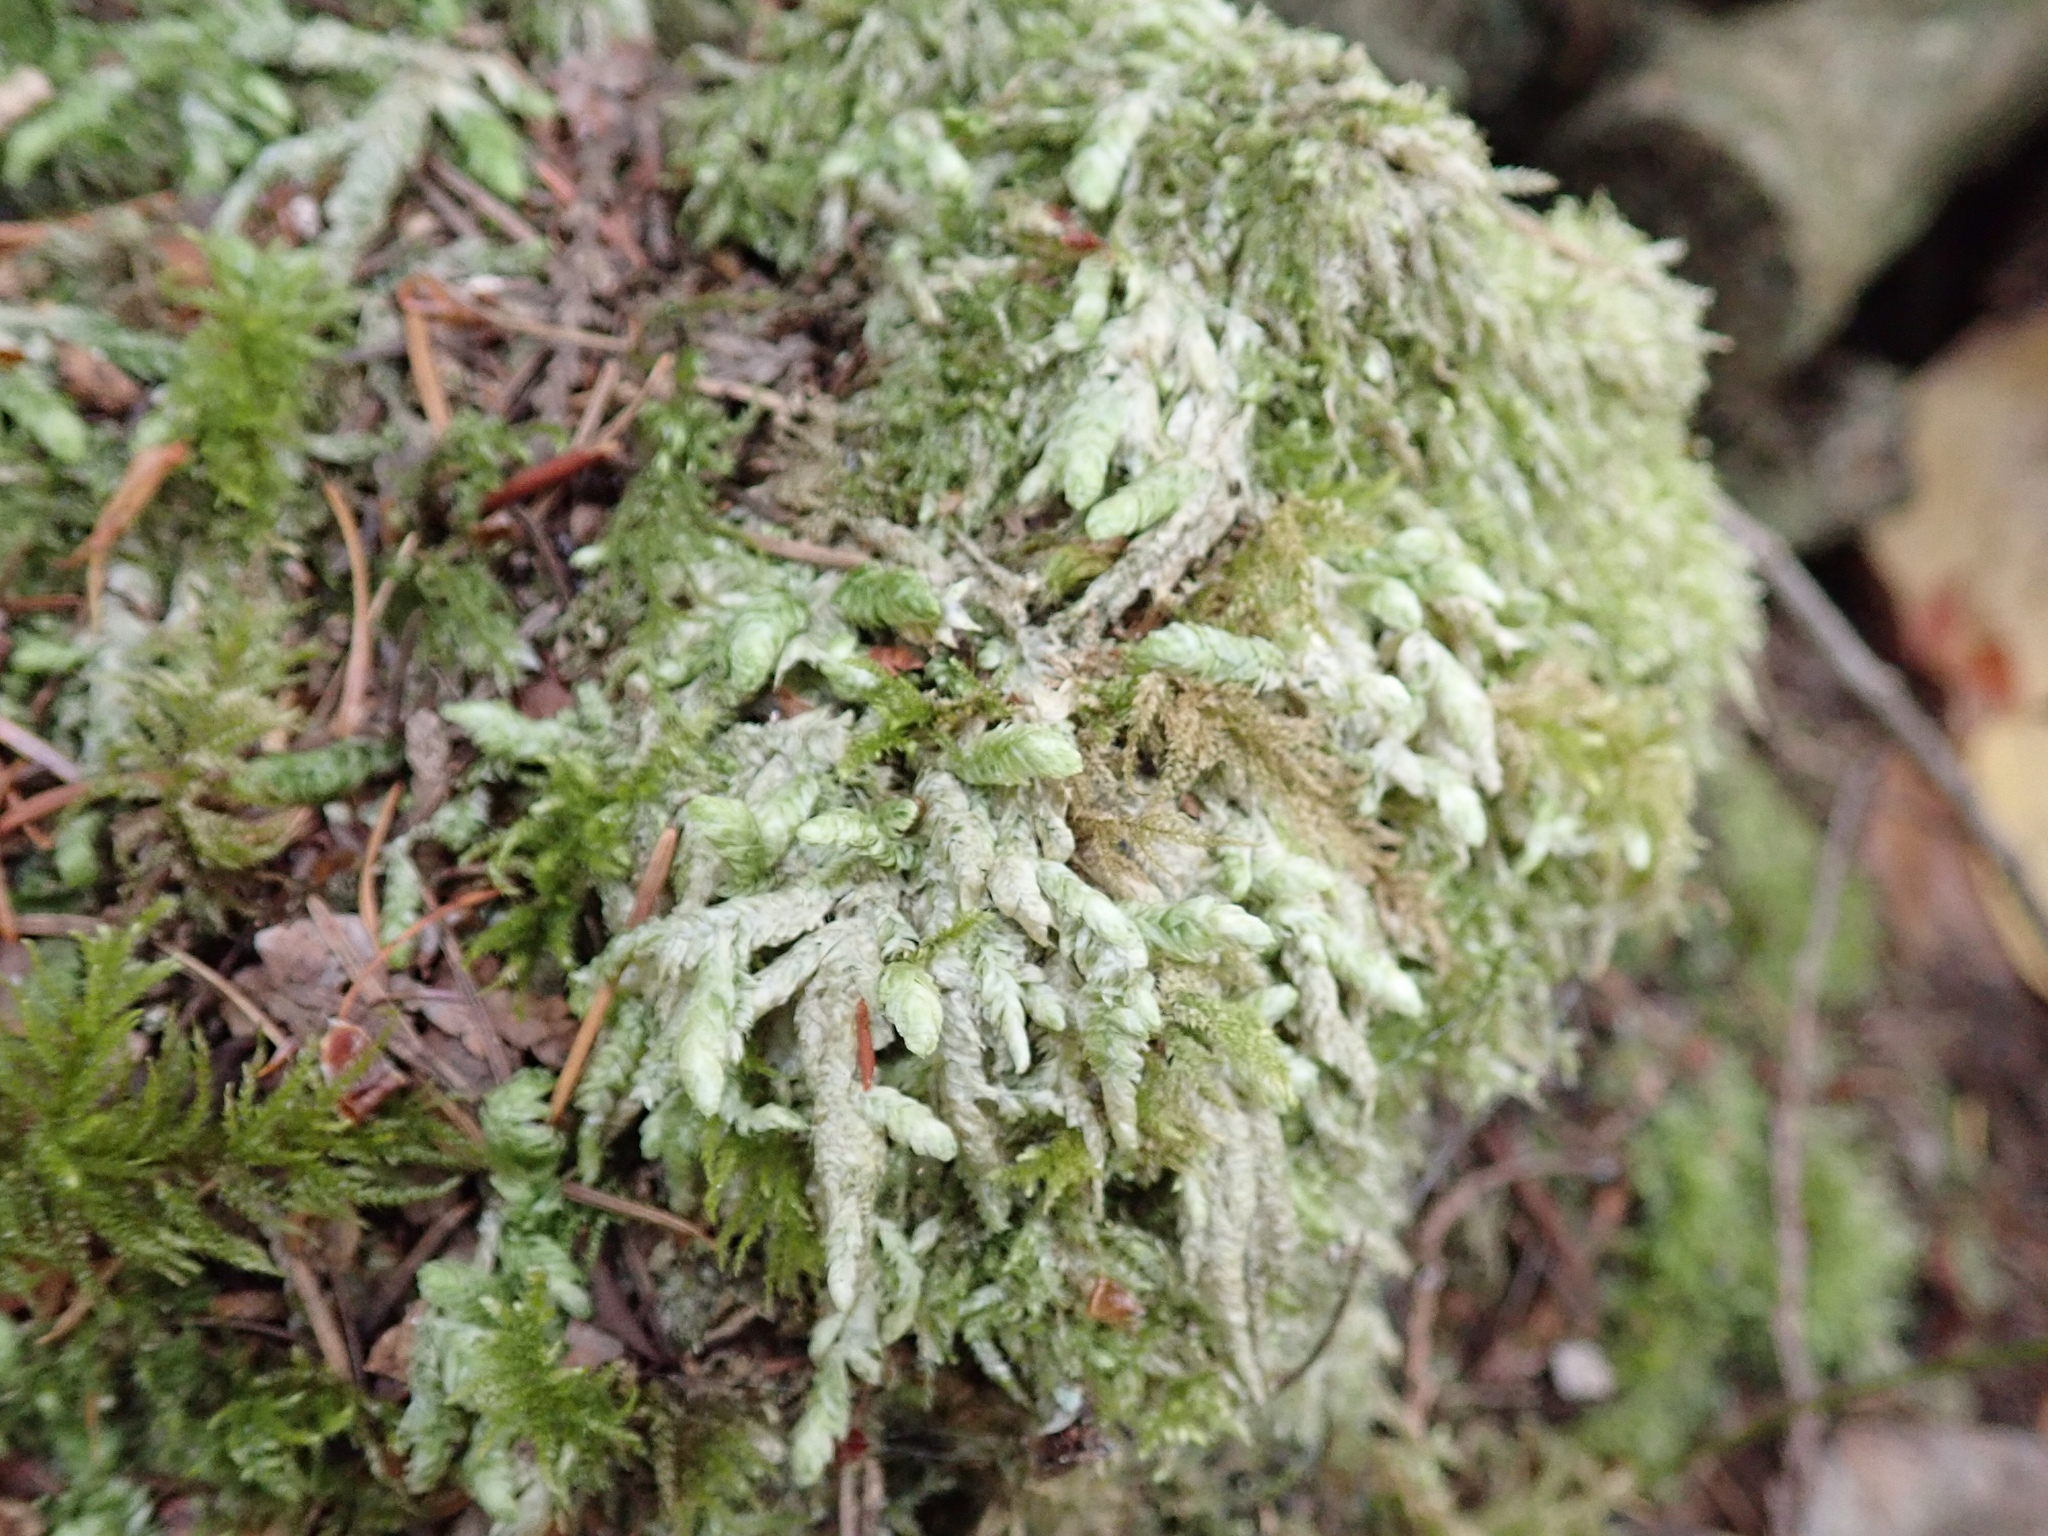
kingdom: Plantae
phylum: Bryophyta
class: Bryopsida
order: Hypnales
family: Plagiotheciaceae
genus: Plagiothecium
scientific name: Plagiothecium undulatum
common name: Waved silk-moss
